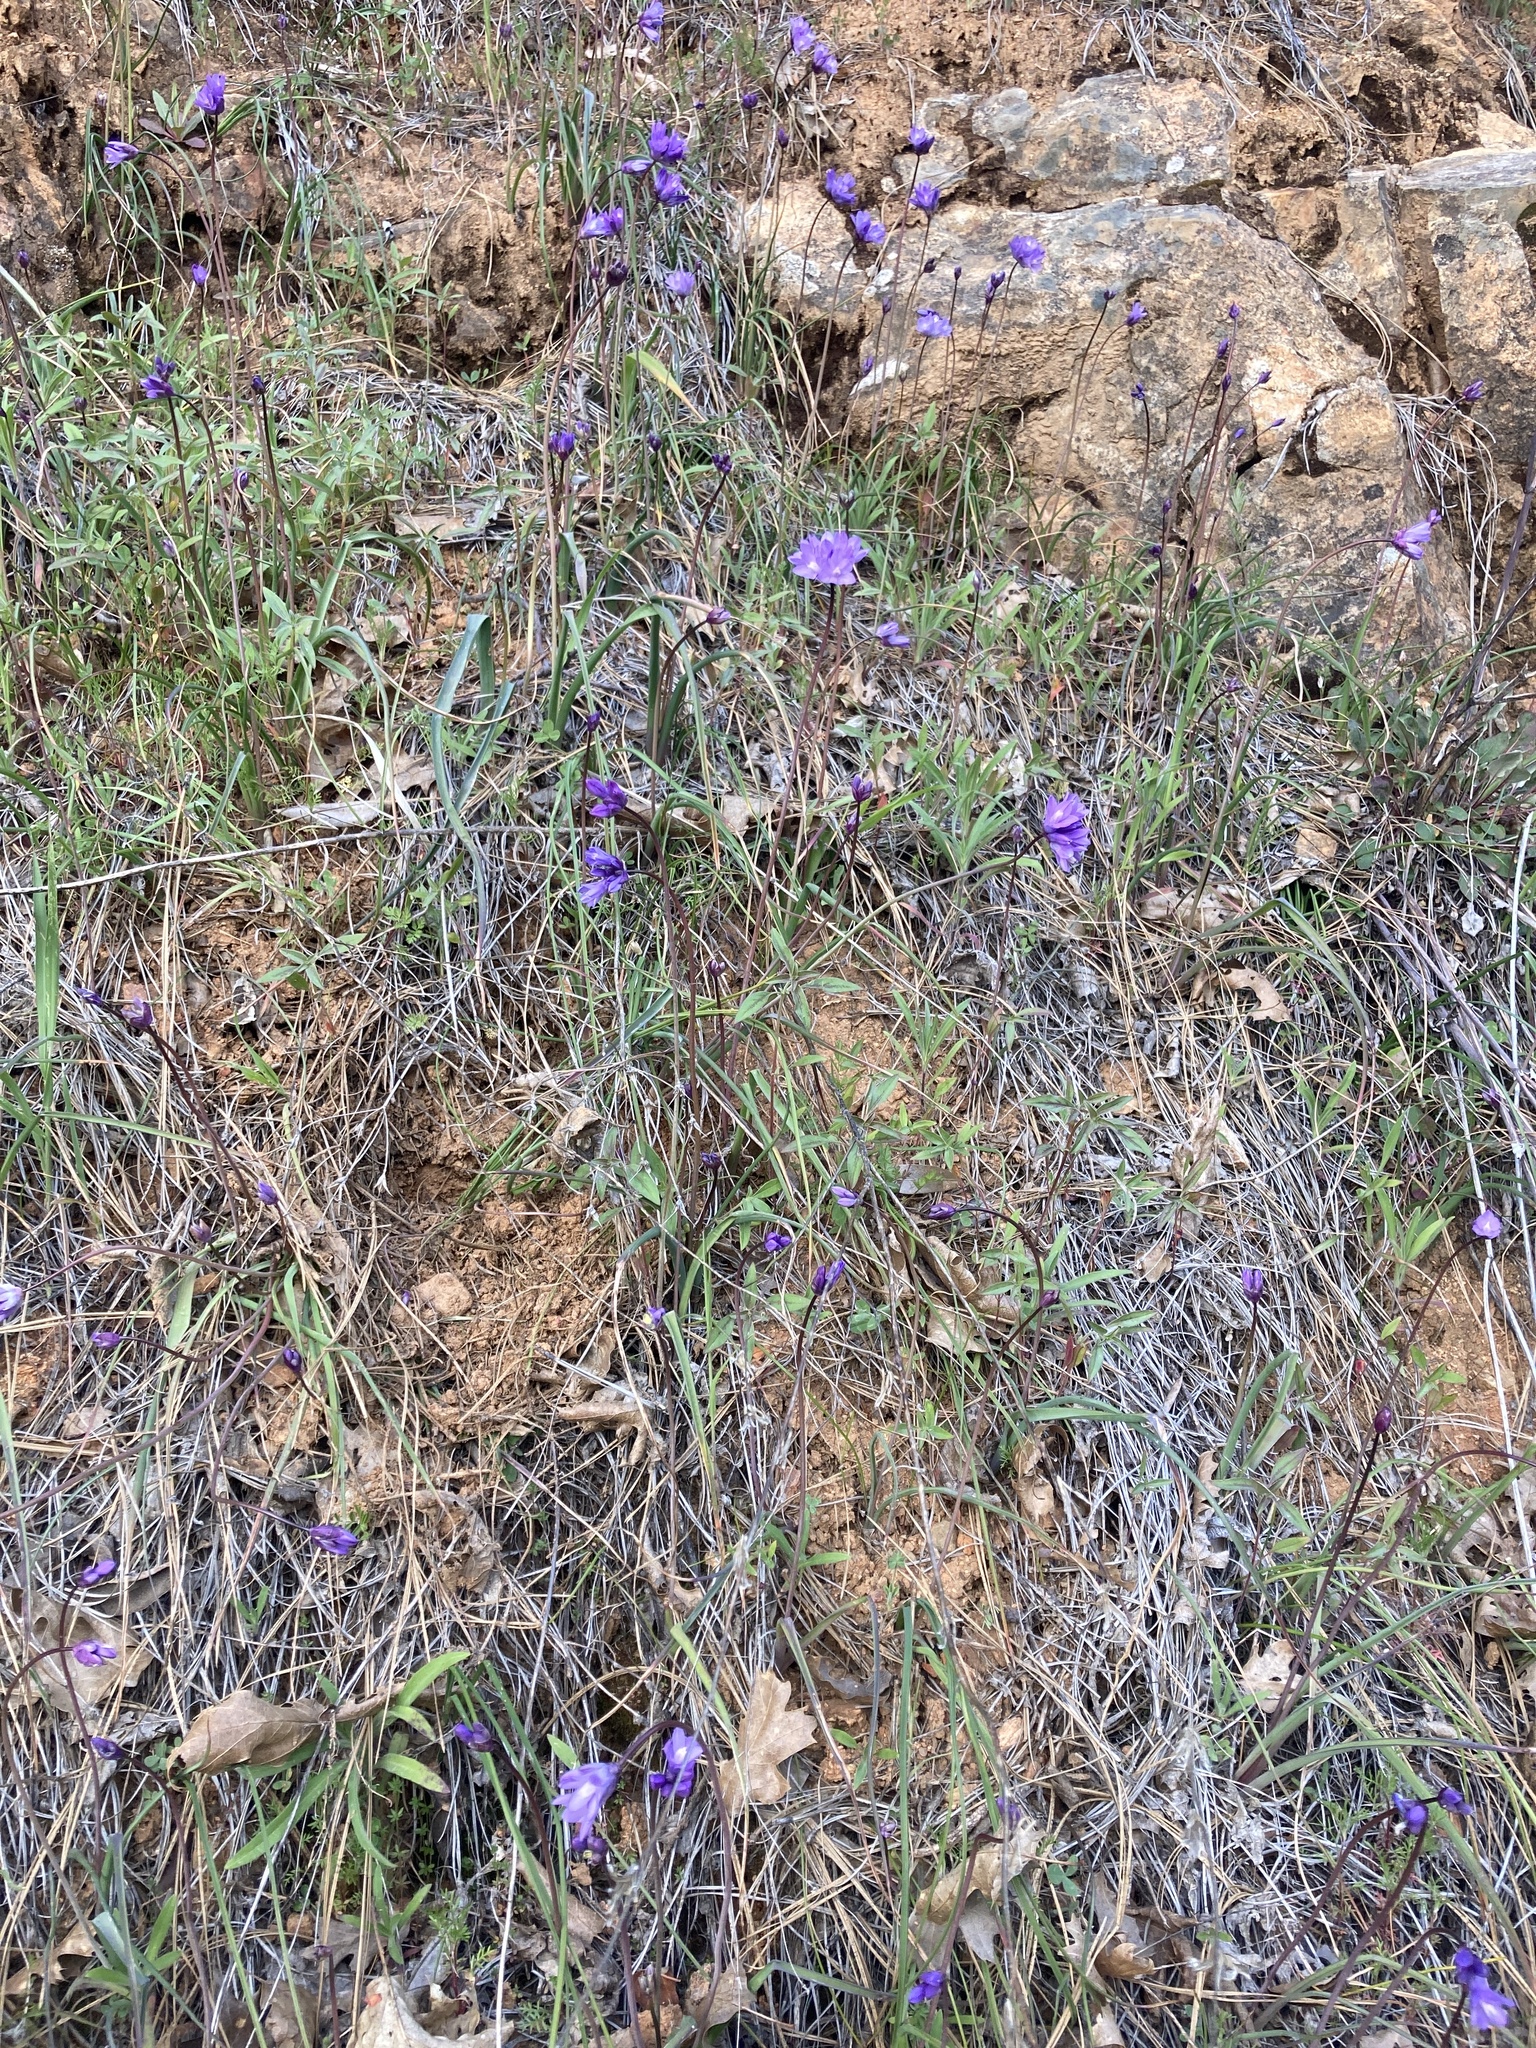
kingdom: Plantae
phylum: Tracheophyta
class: Liliopsida
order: Asparagales
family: Asparagaceae
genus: Dipterostemon
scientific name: Dipterostemon capitatus
